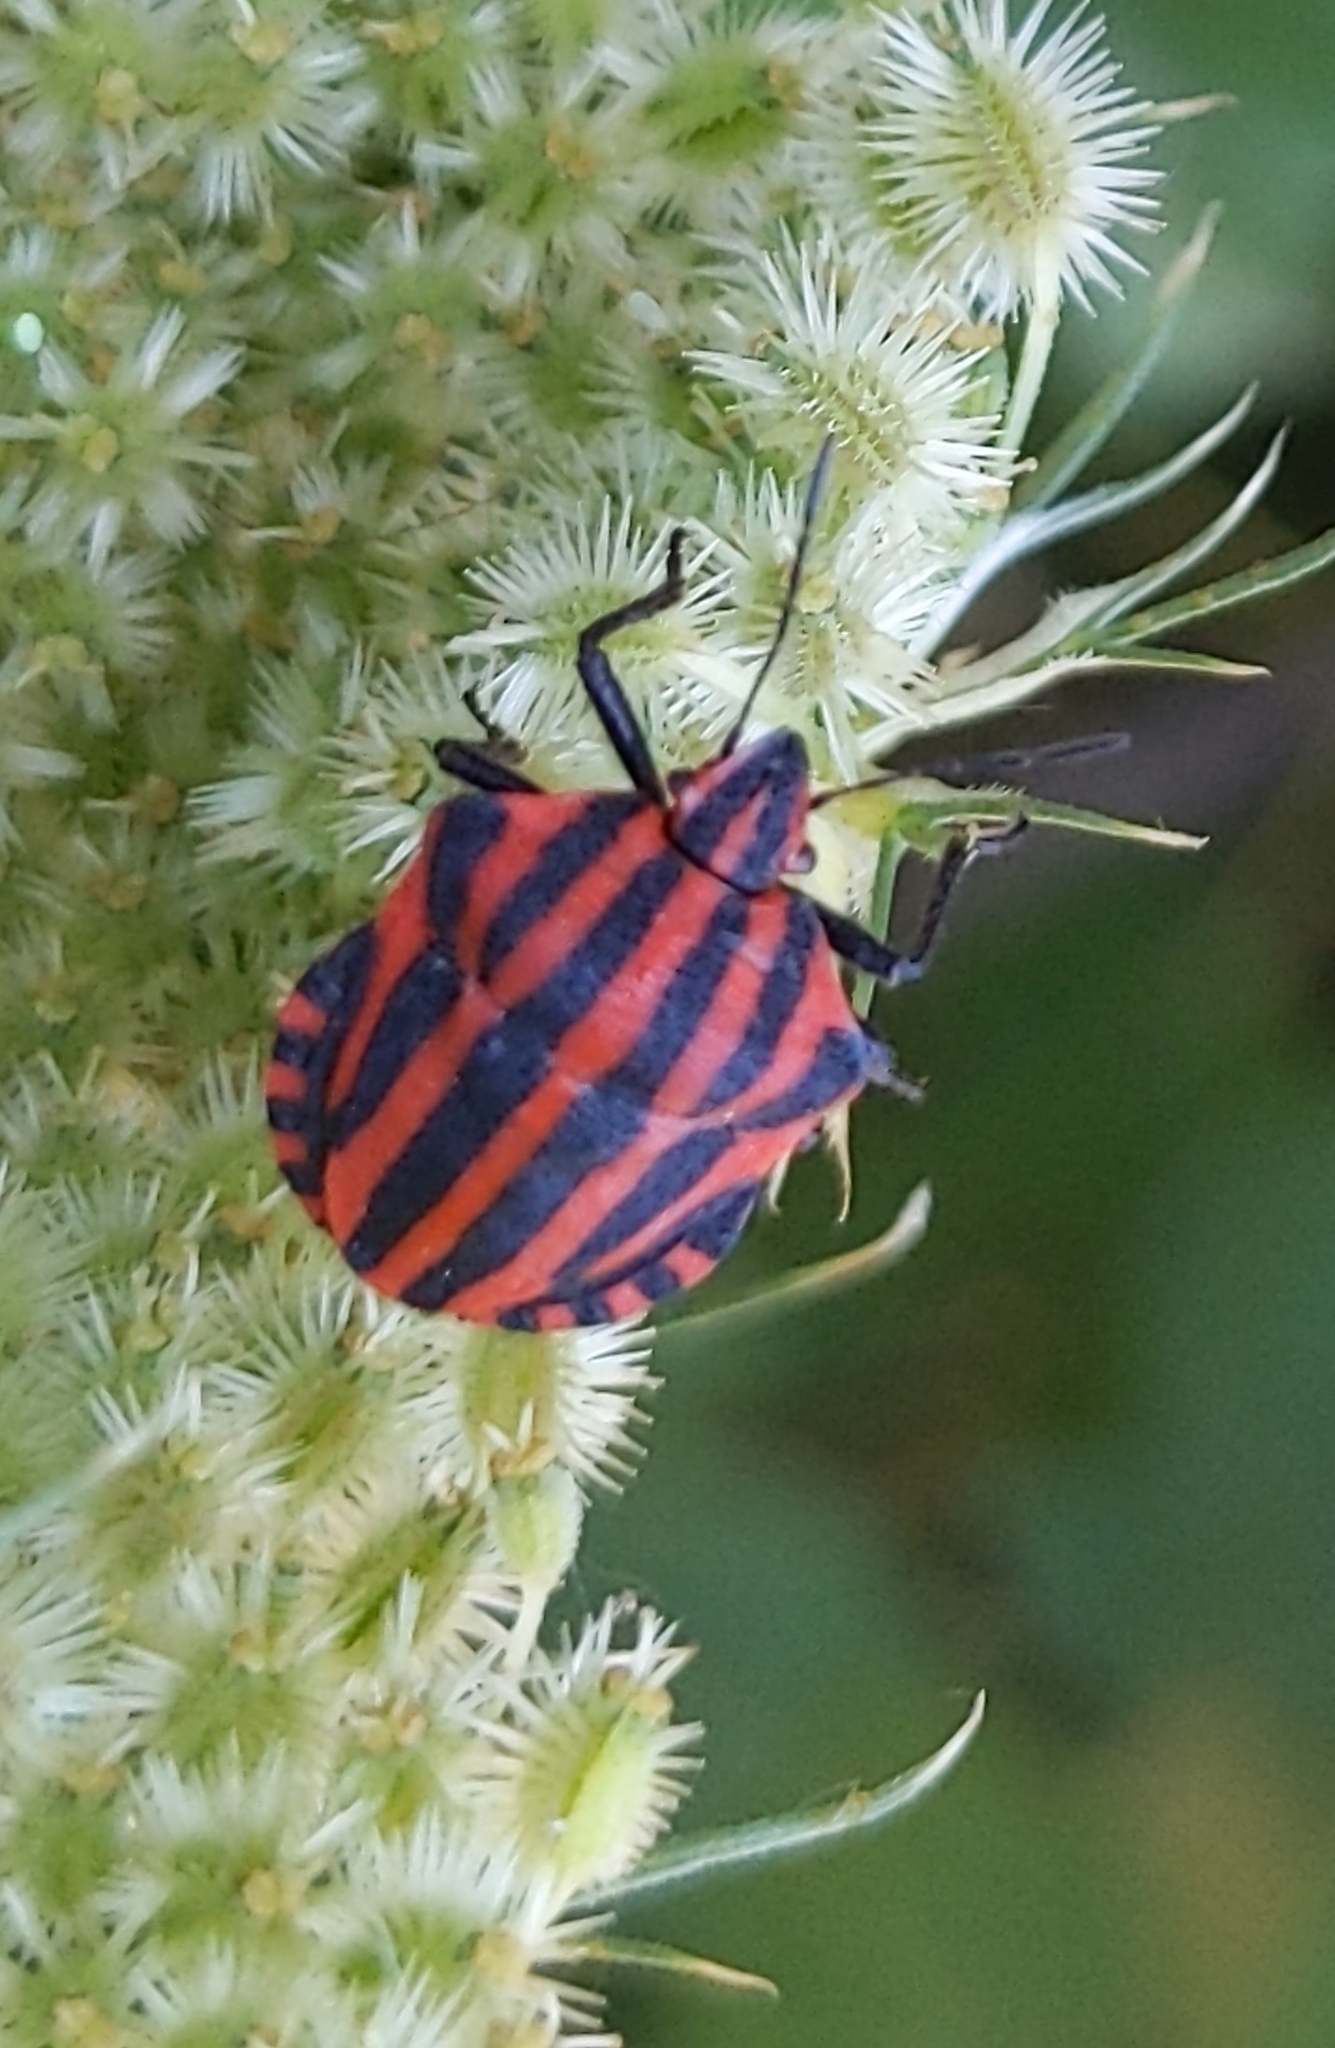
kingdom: Animalia
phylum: Arthropoda
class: Insecta
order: Hemiptera
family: Pentatomidae
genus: Graphosoma
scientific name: Graphosoma italicum
